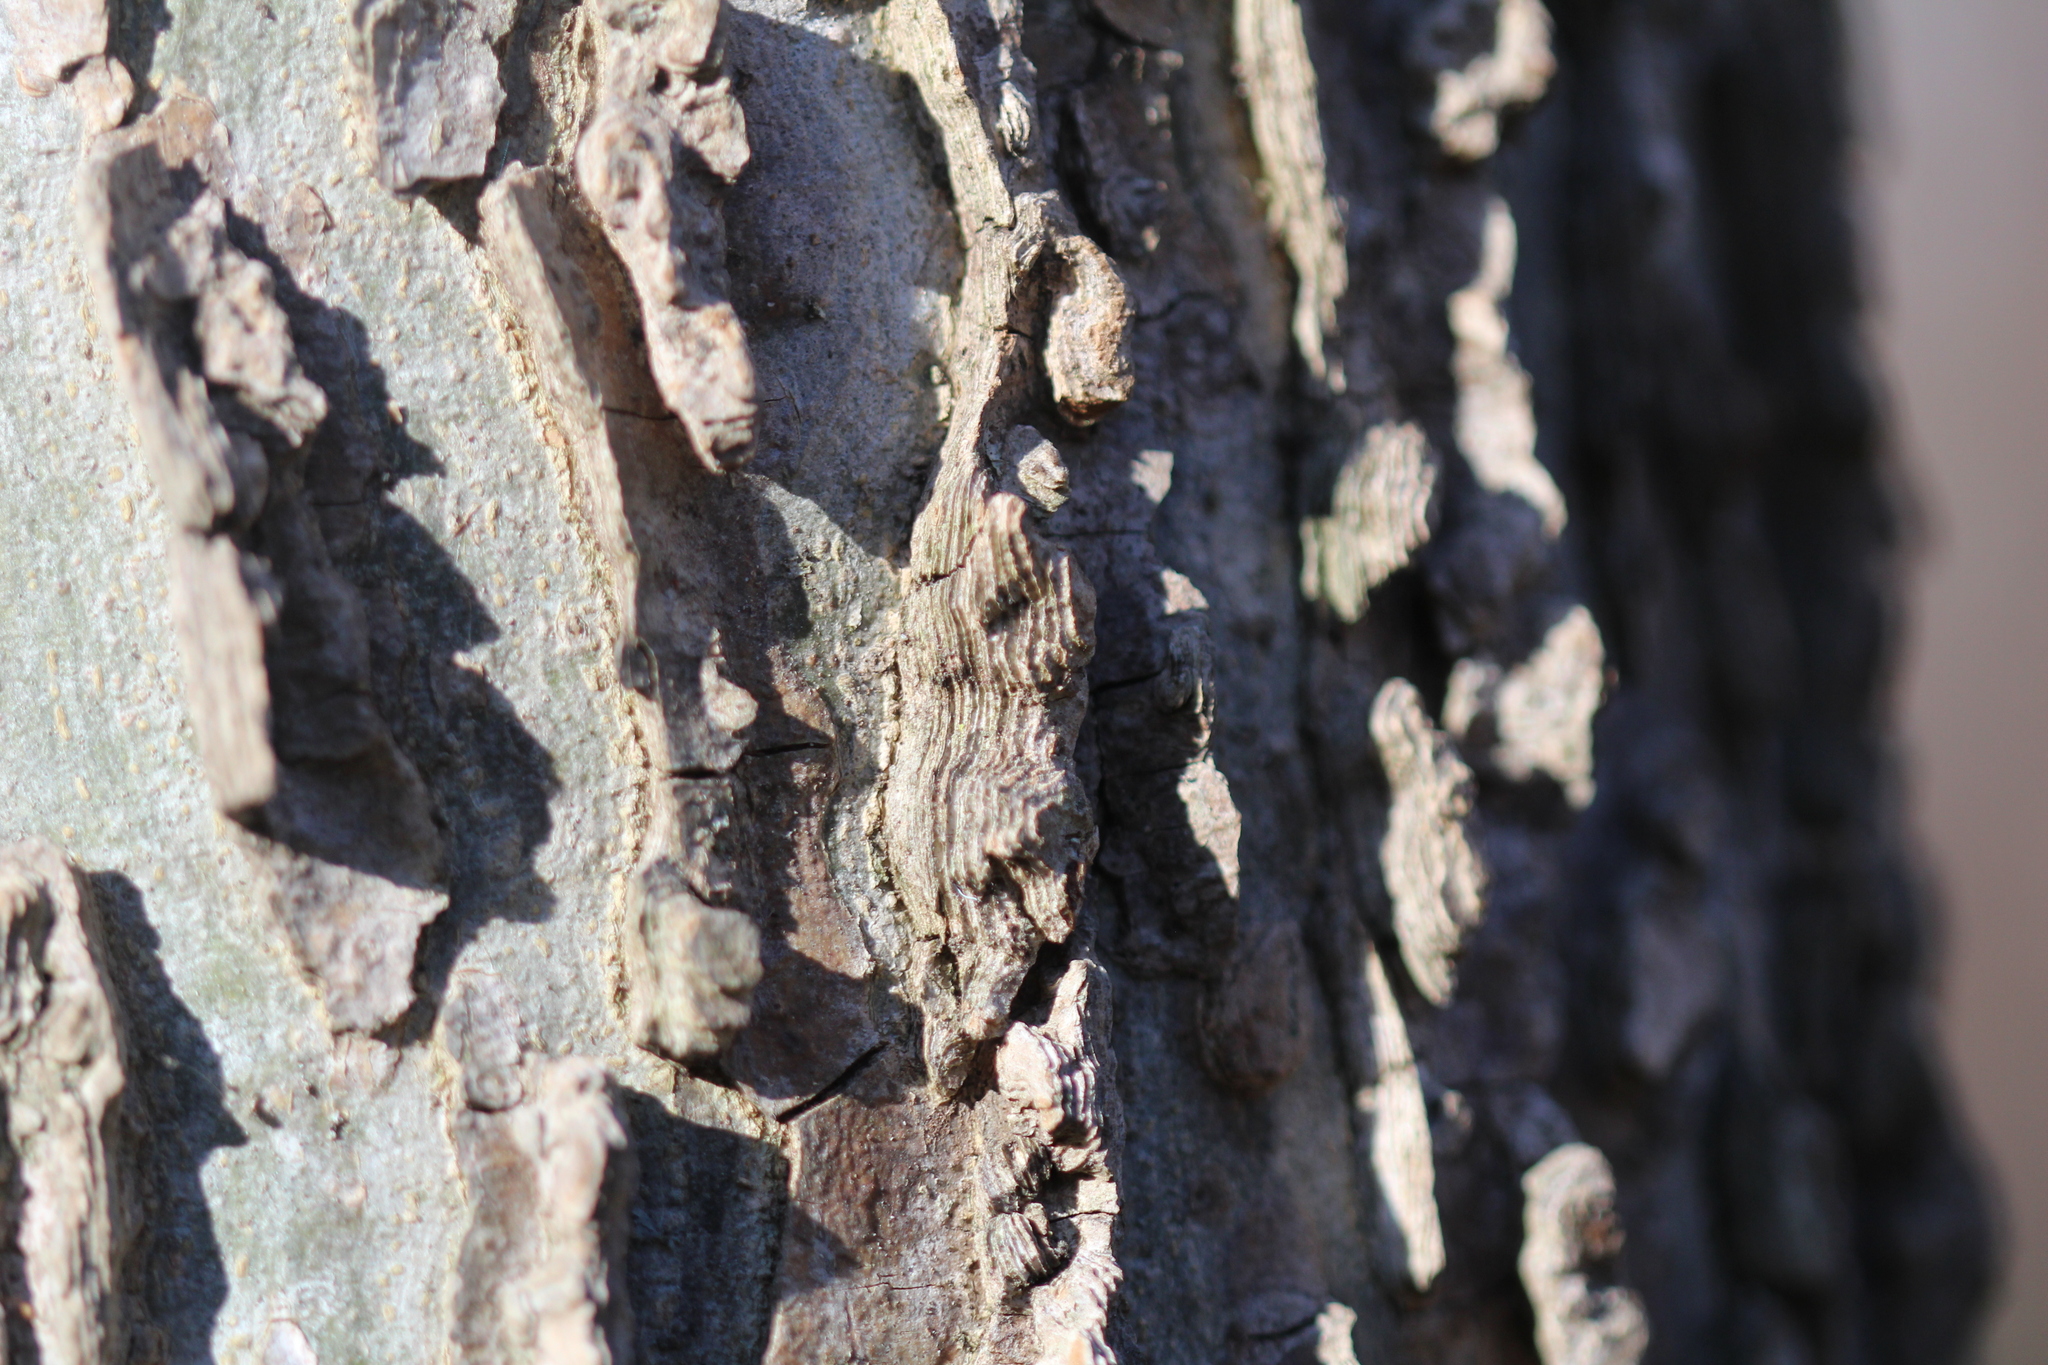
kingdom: Plantae
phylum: Tracheophyta
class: Magnoliopsida
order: Rosales
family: Cannabaceae
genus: Celtis
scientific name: Celtis occidentalis
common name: Common hackberry
